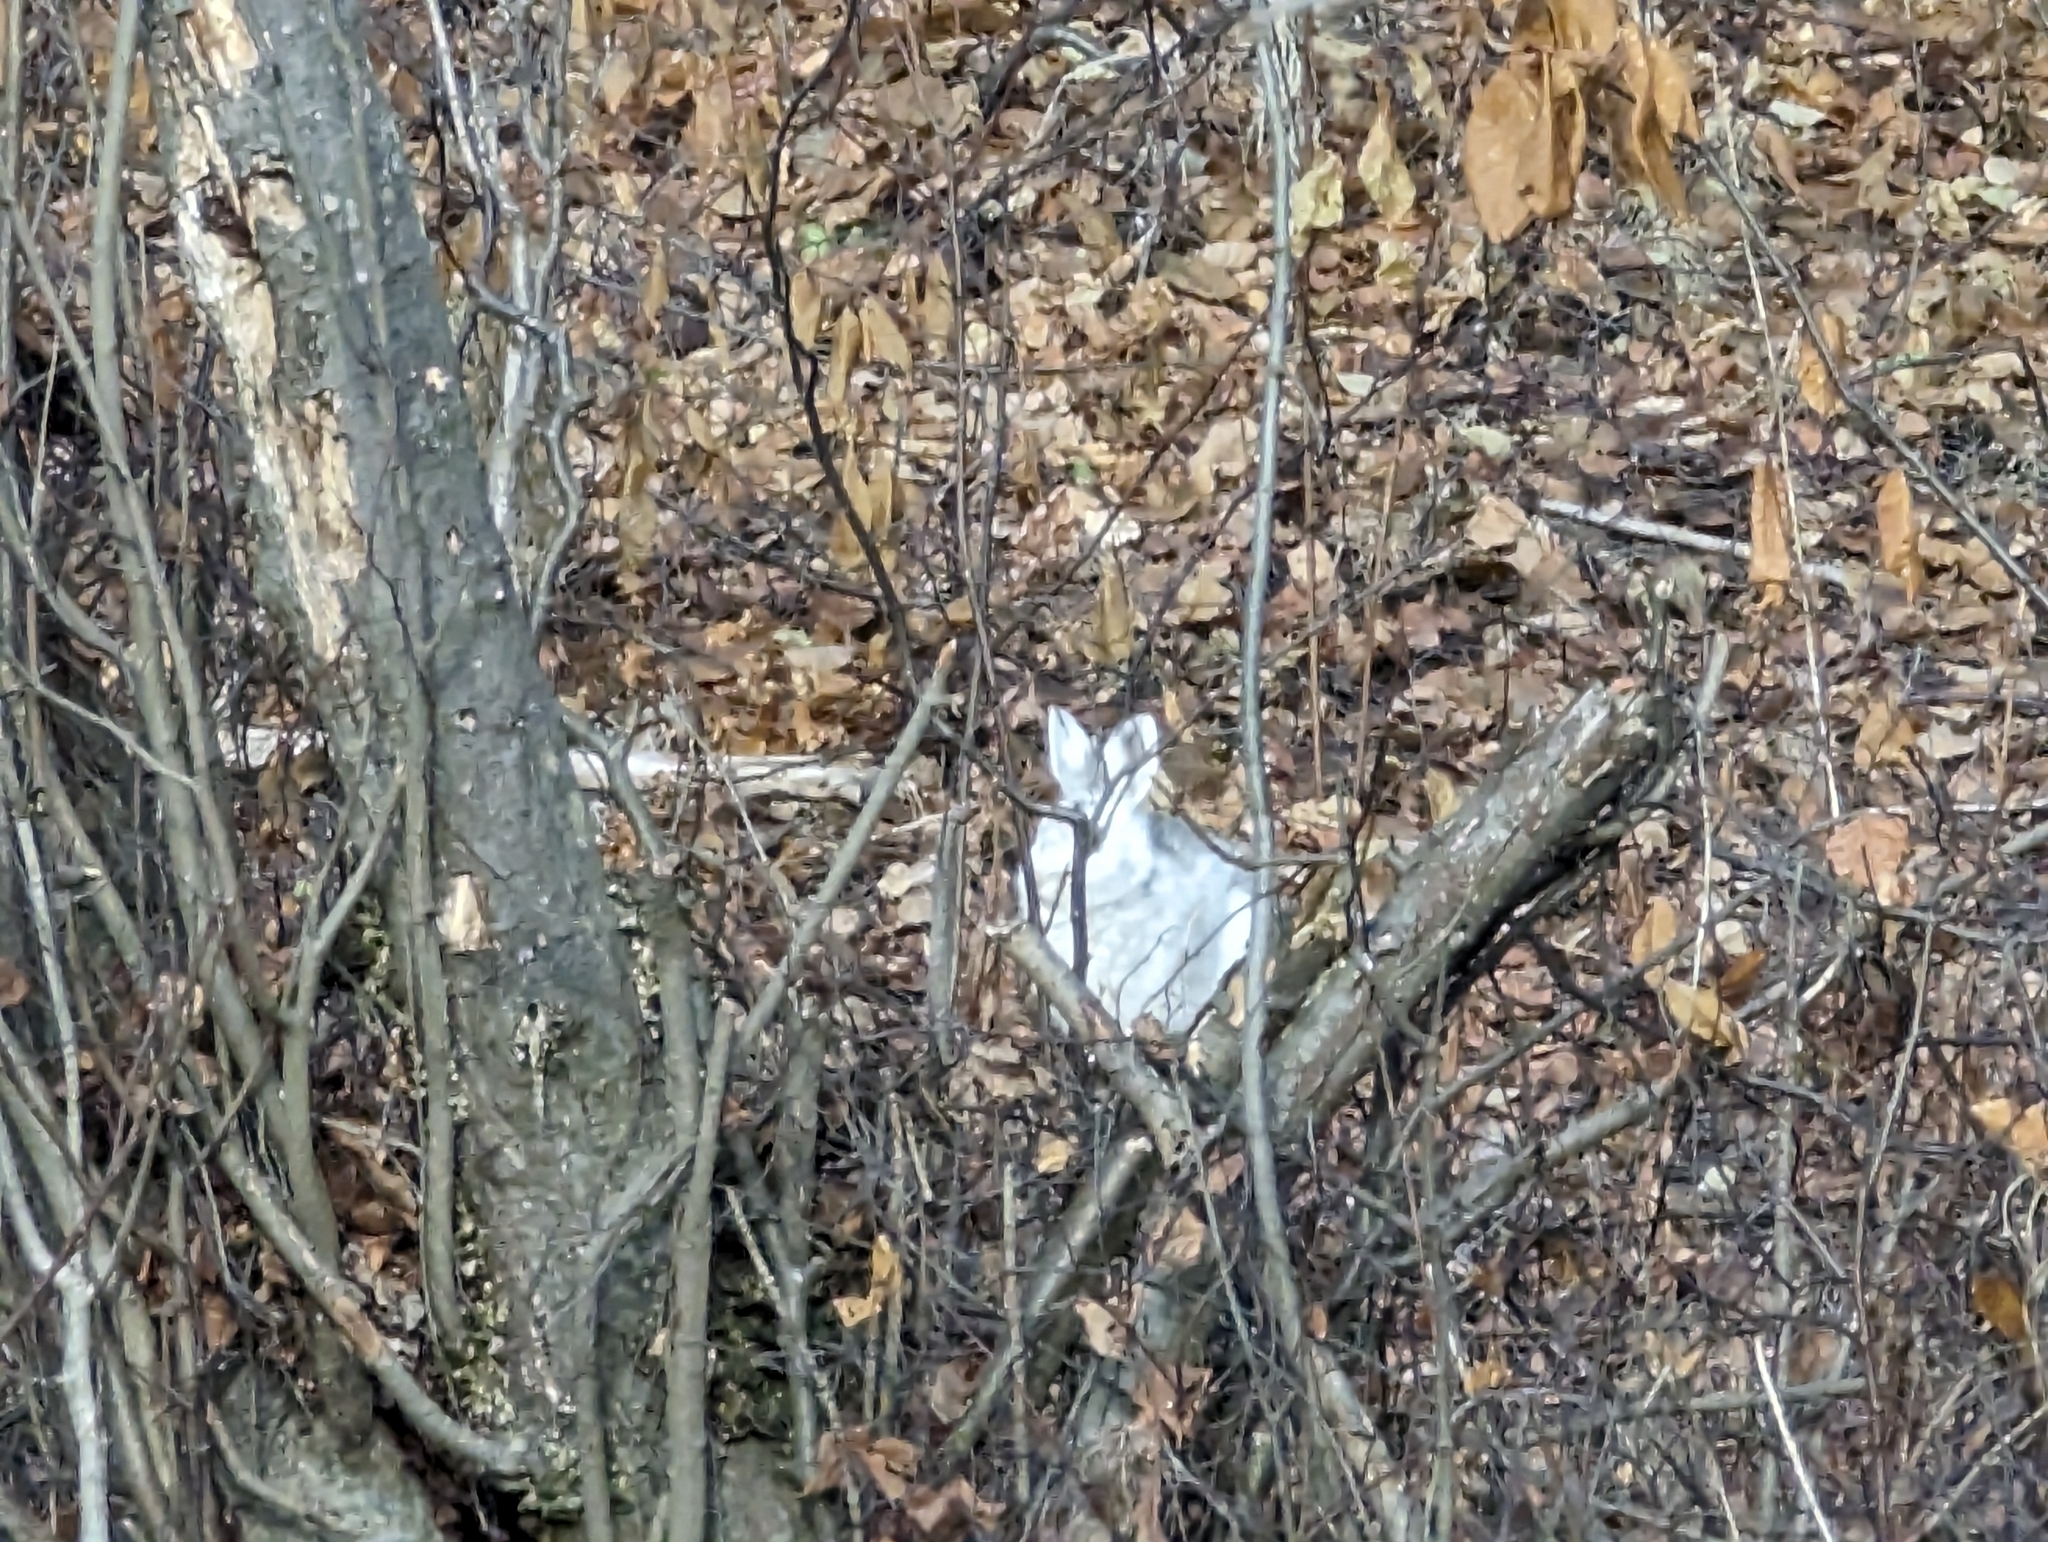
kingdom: Animalia
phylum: Chordata
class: Mammalia
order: Lagomorpha
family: Leporidae
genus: Lepus
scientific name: Lepus americanus
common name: Snowshoe hare
